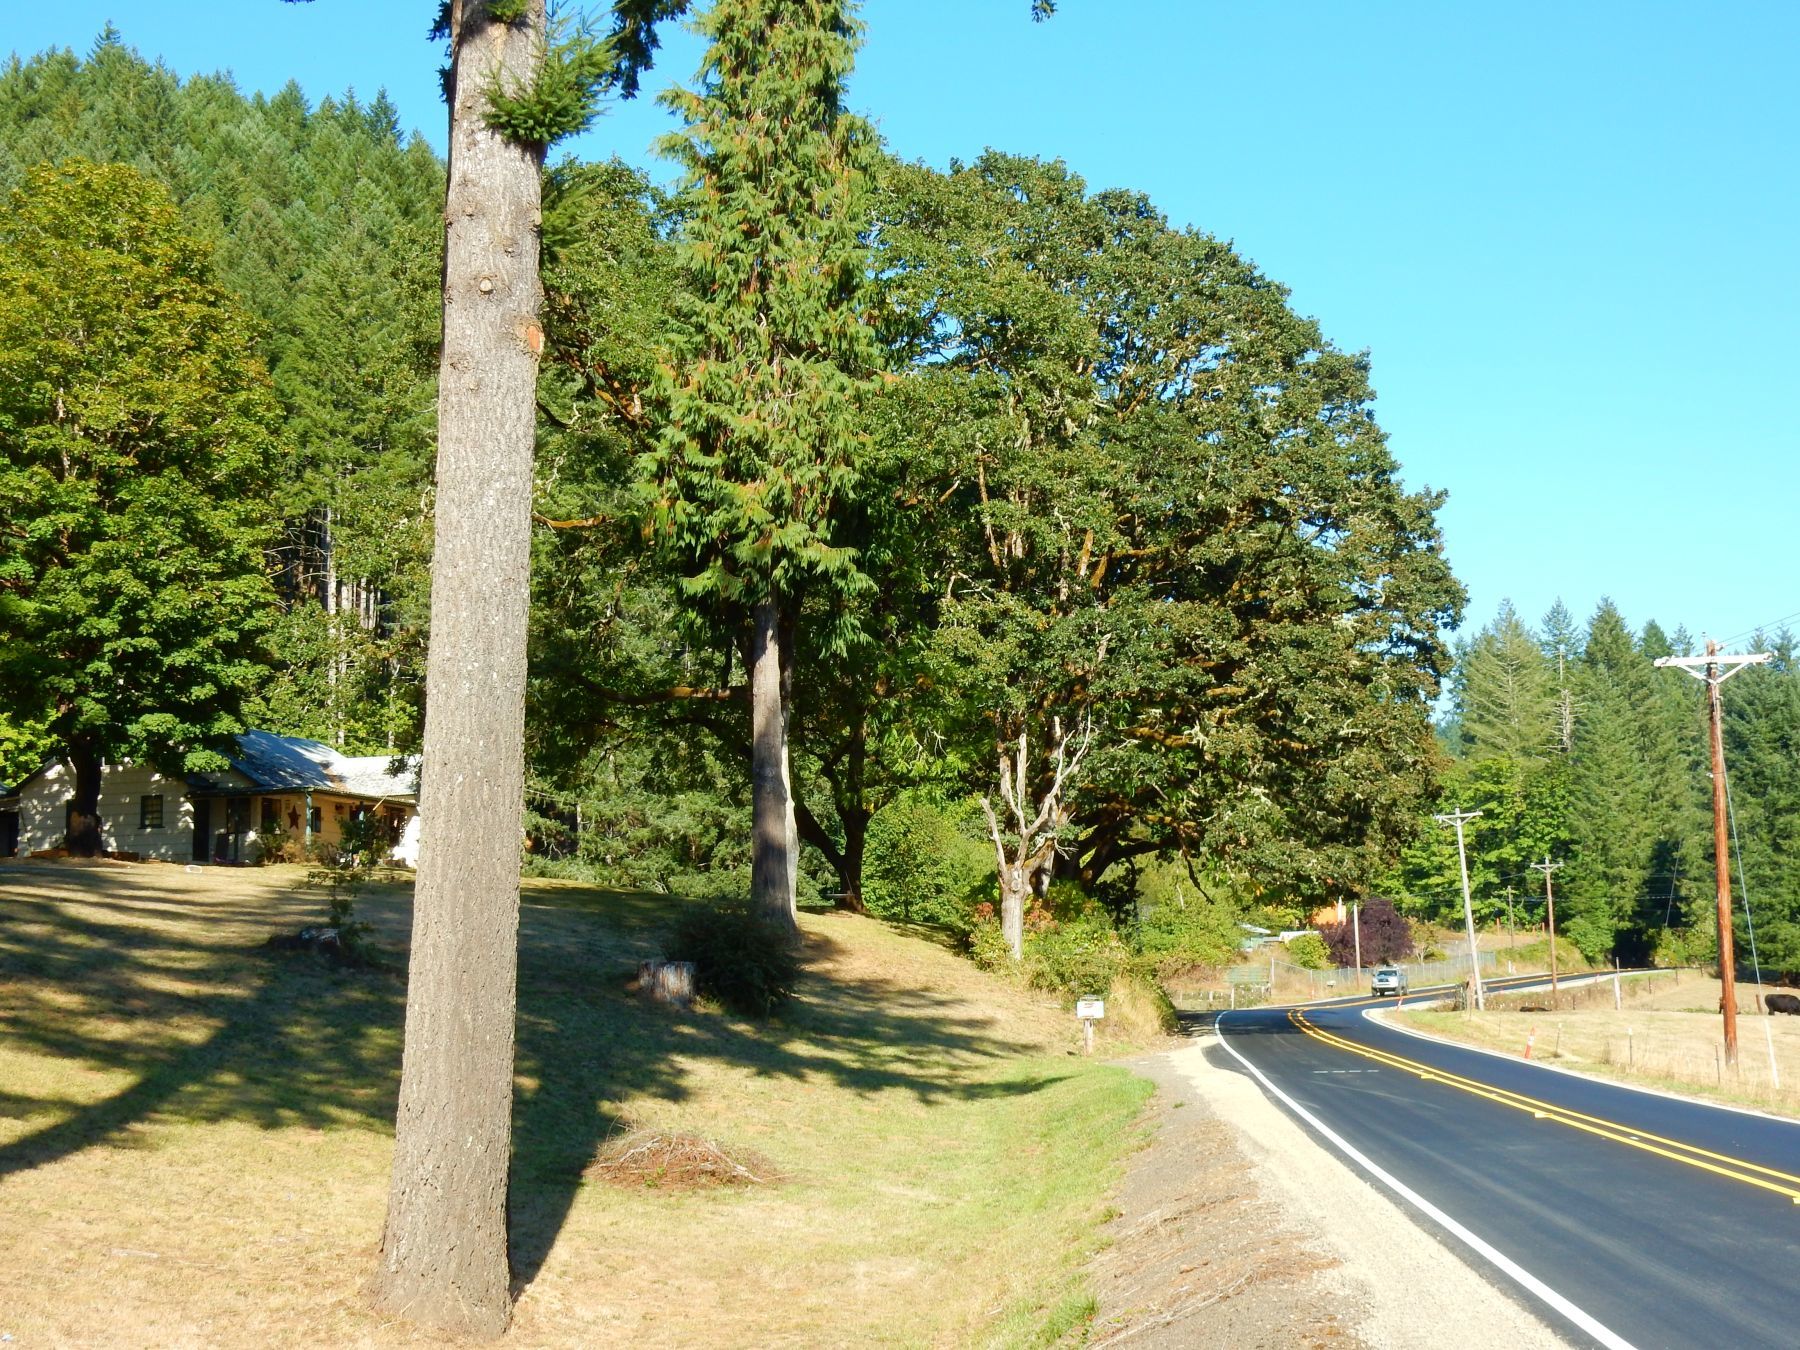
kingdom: Plantae
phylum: Tracheophyta
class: Magnoliopsida
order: Fagales
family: Fagaceae
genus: Quercus
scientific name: Quercus garryana
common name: Garry oak
